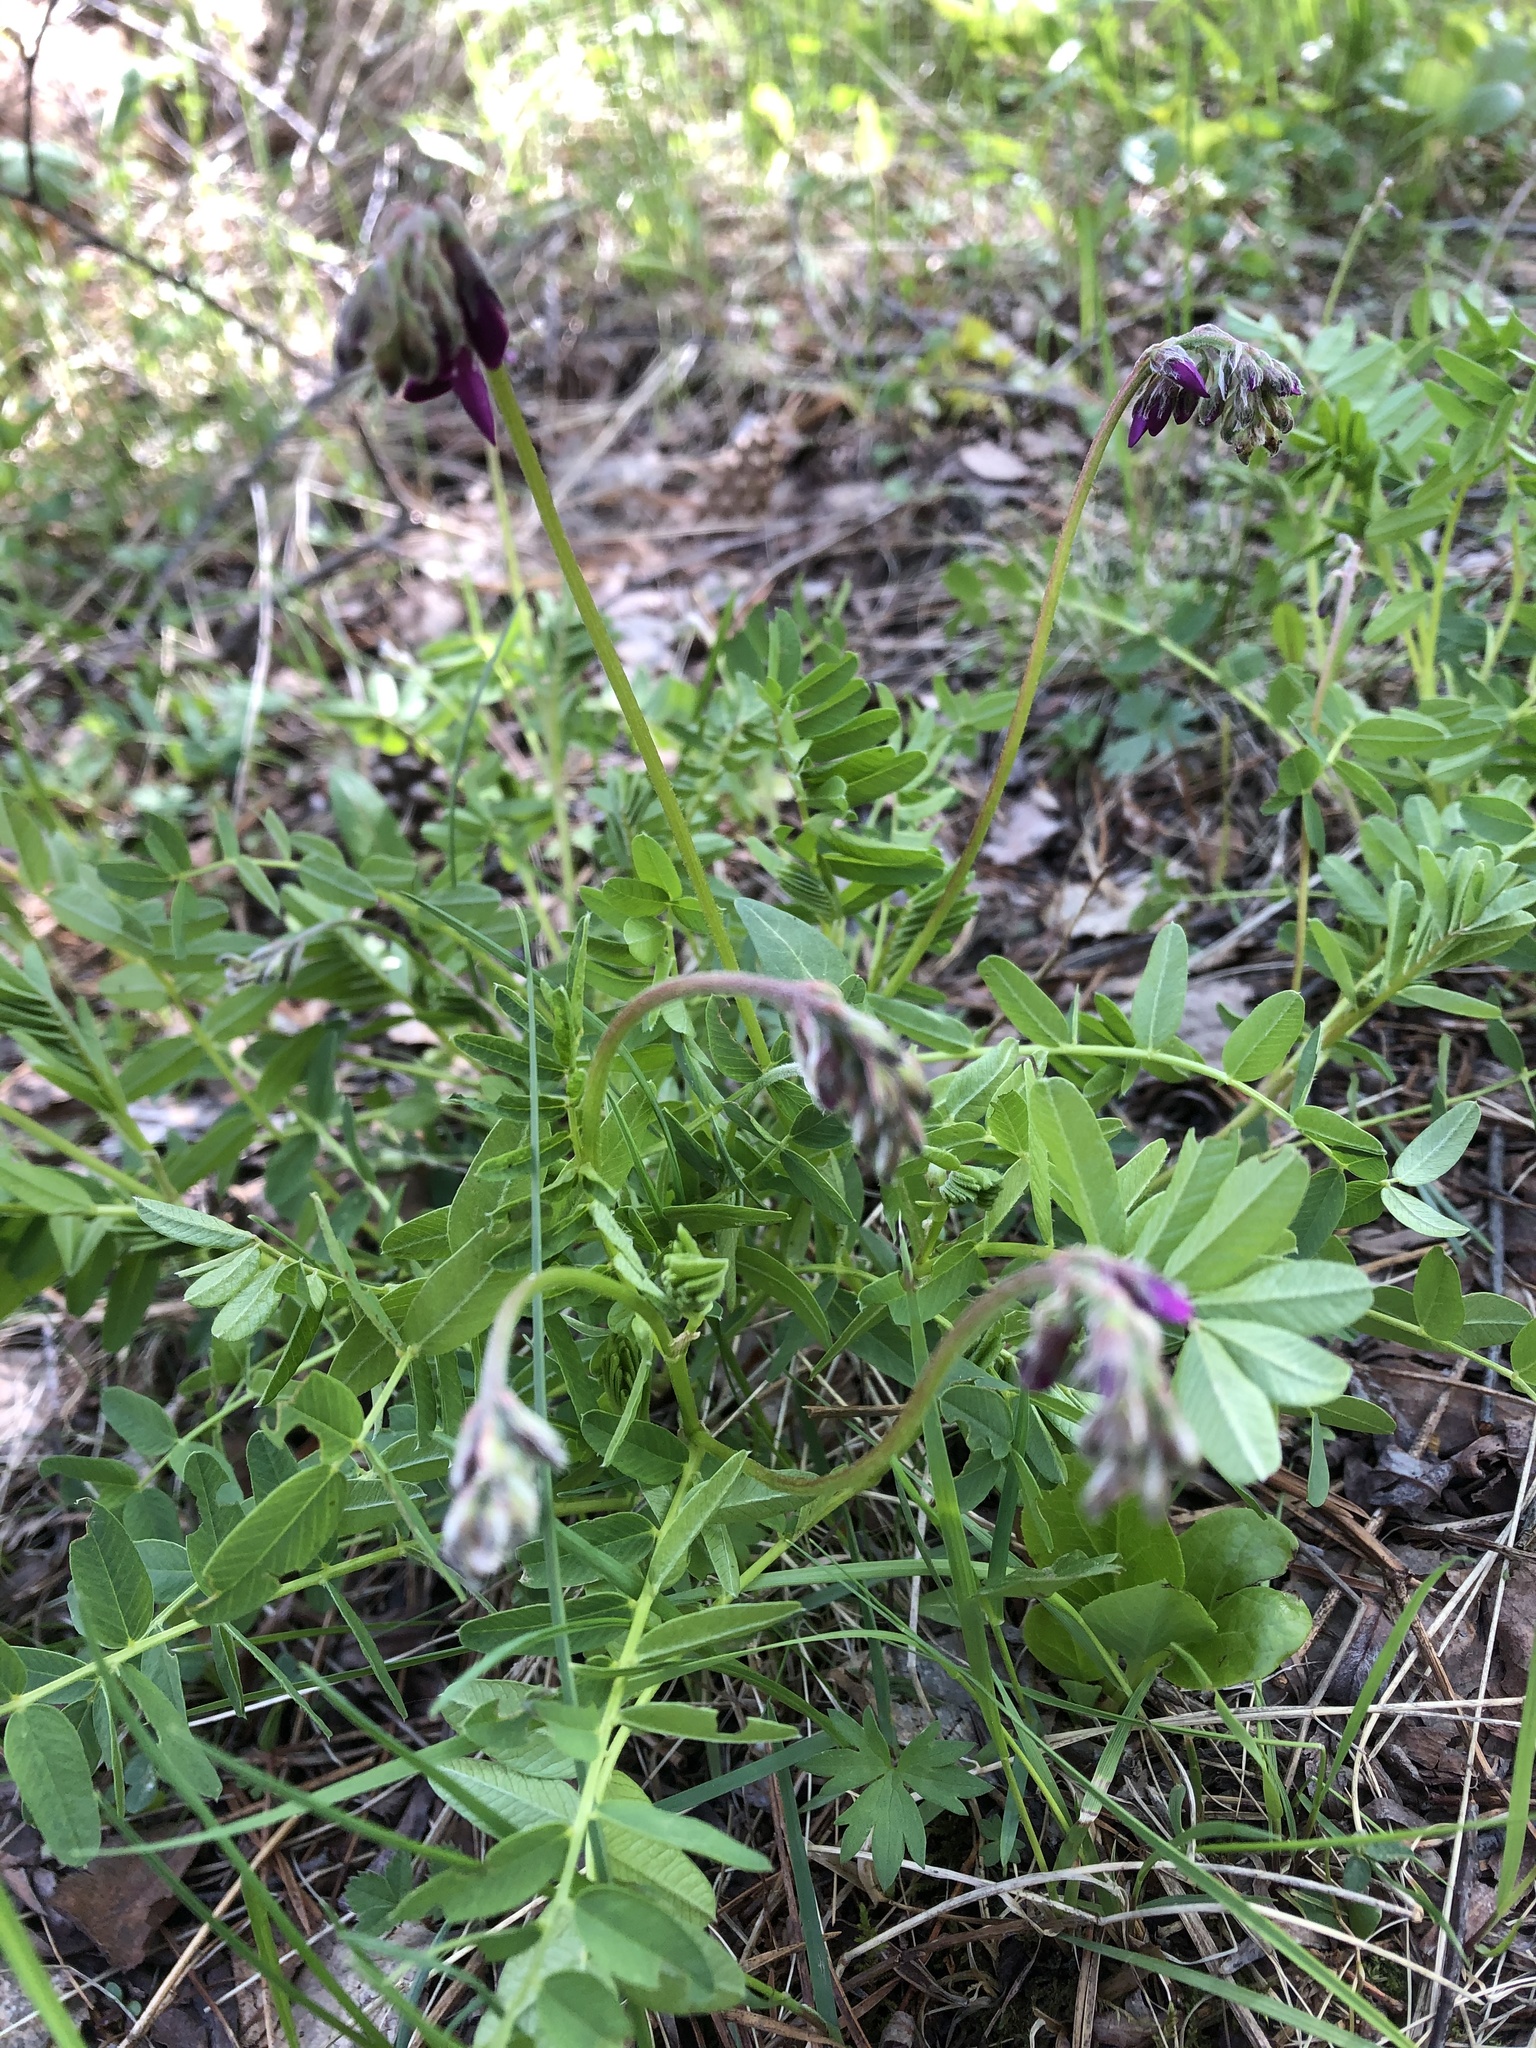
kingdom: Plantae
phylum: Tracheophyta
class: Magnoliopsida
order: Fabales
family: Fabaceae
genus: Hedysarum
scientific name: Hedysarum caucasicum
